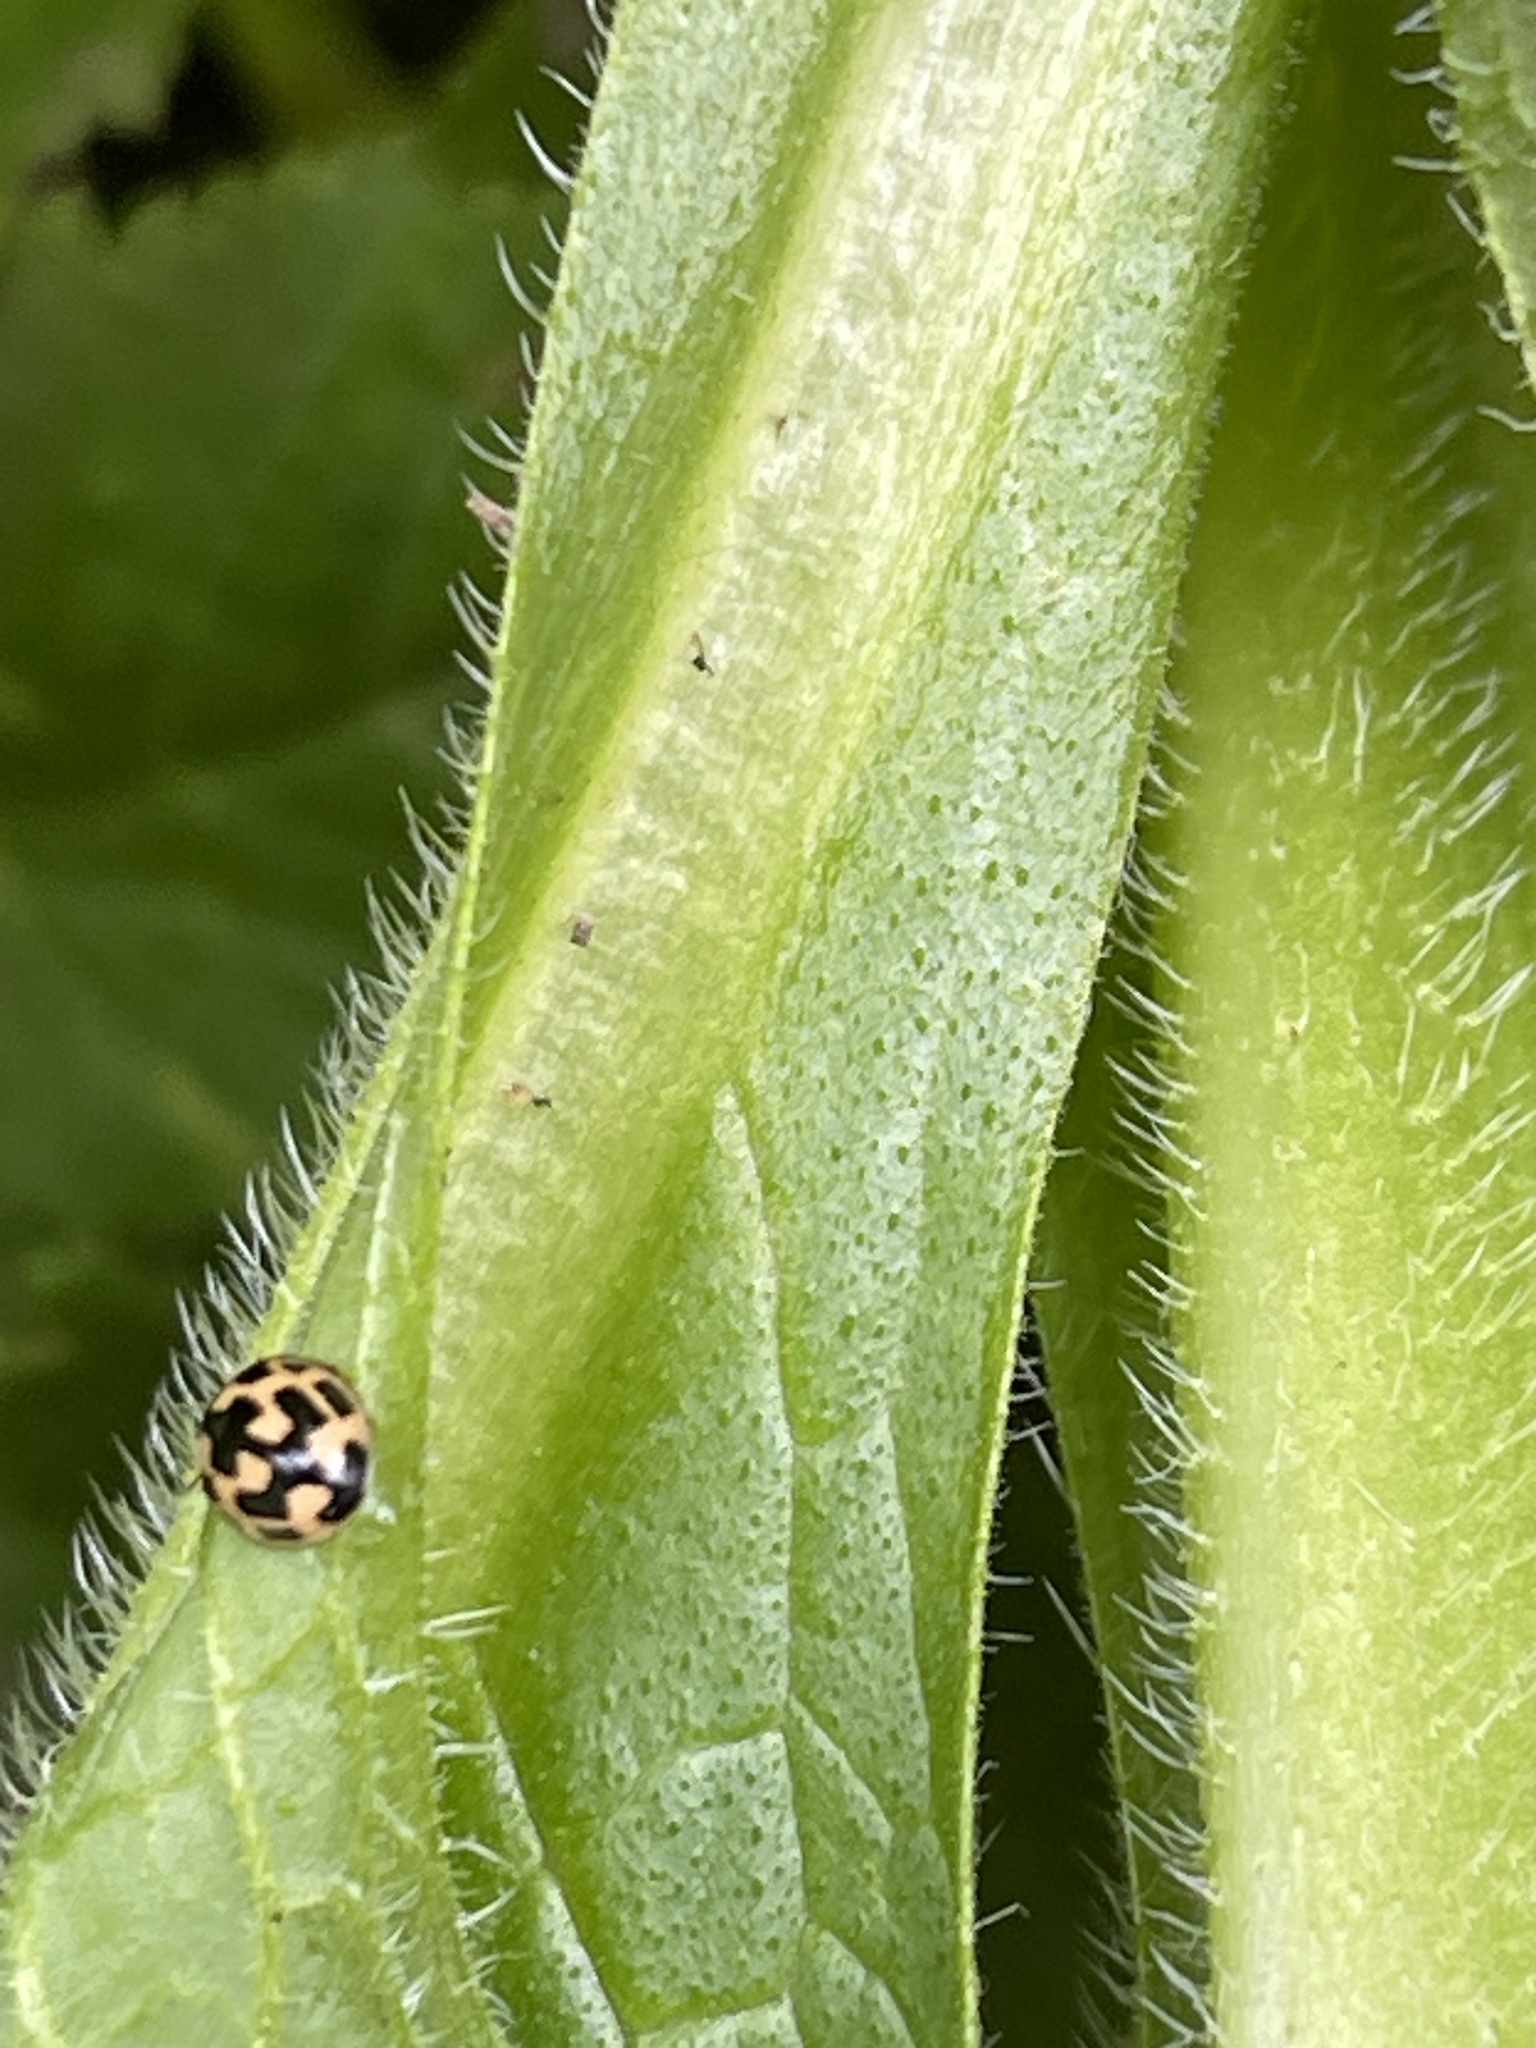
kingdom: Animalia
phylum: Arthropoda
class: Insecta
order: Coleoptera
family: Coccinellidae
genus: Propylaea
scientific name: Propylaea quatuordecimpunctata
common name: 14-spotted ladybird beetle
